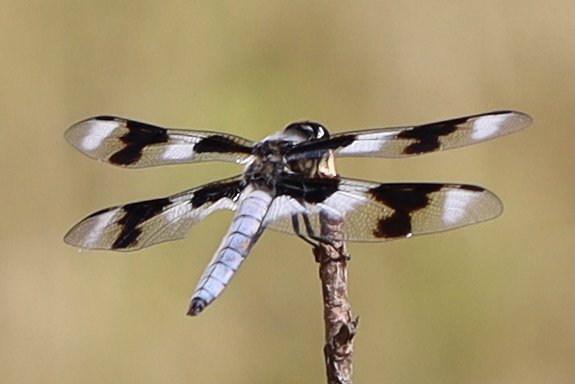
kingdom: Animalia
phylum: Arthropoda
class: Insecta
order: Odonata
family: Libellulidae
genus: Libellula
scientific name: Libellula forensis
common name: Eight-spotted skimmer
